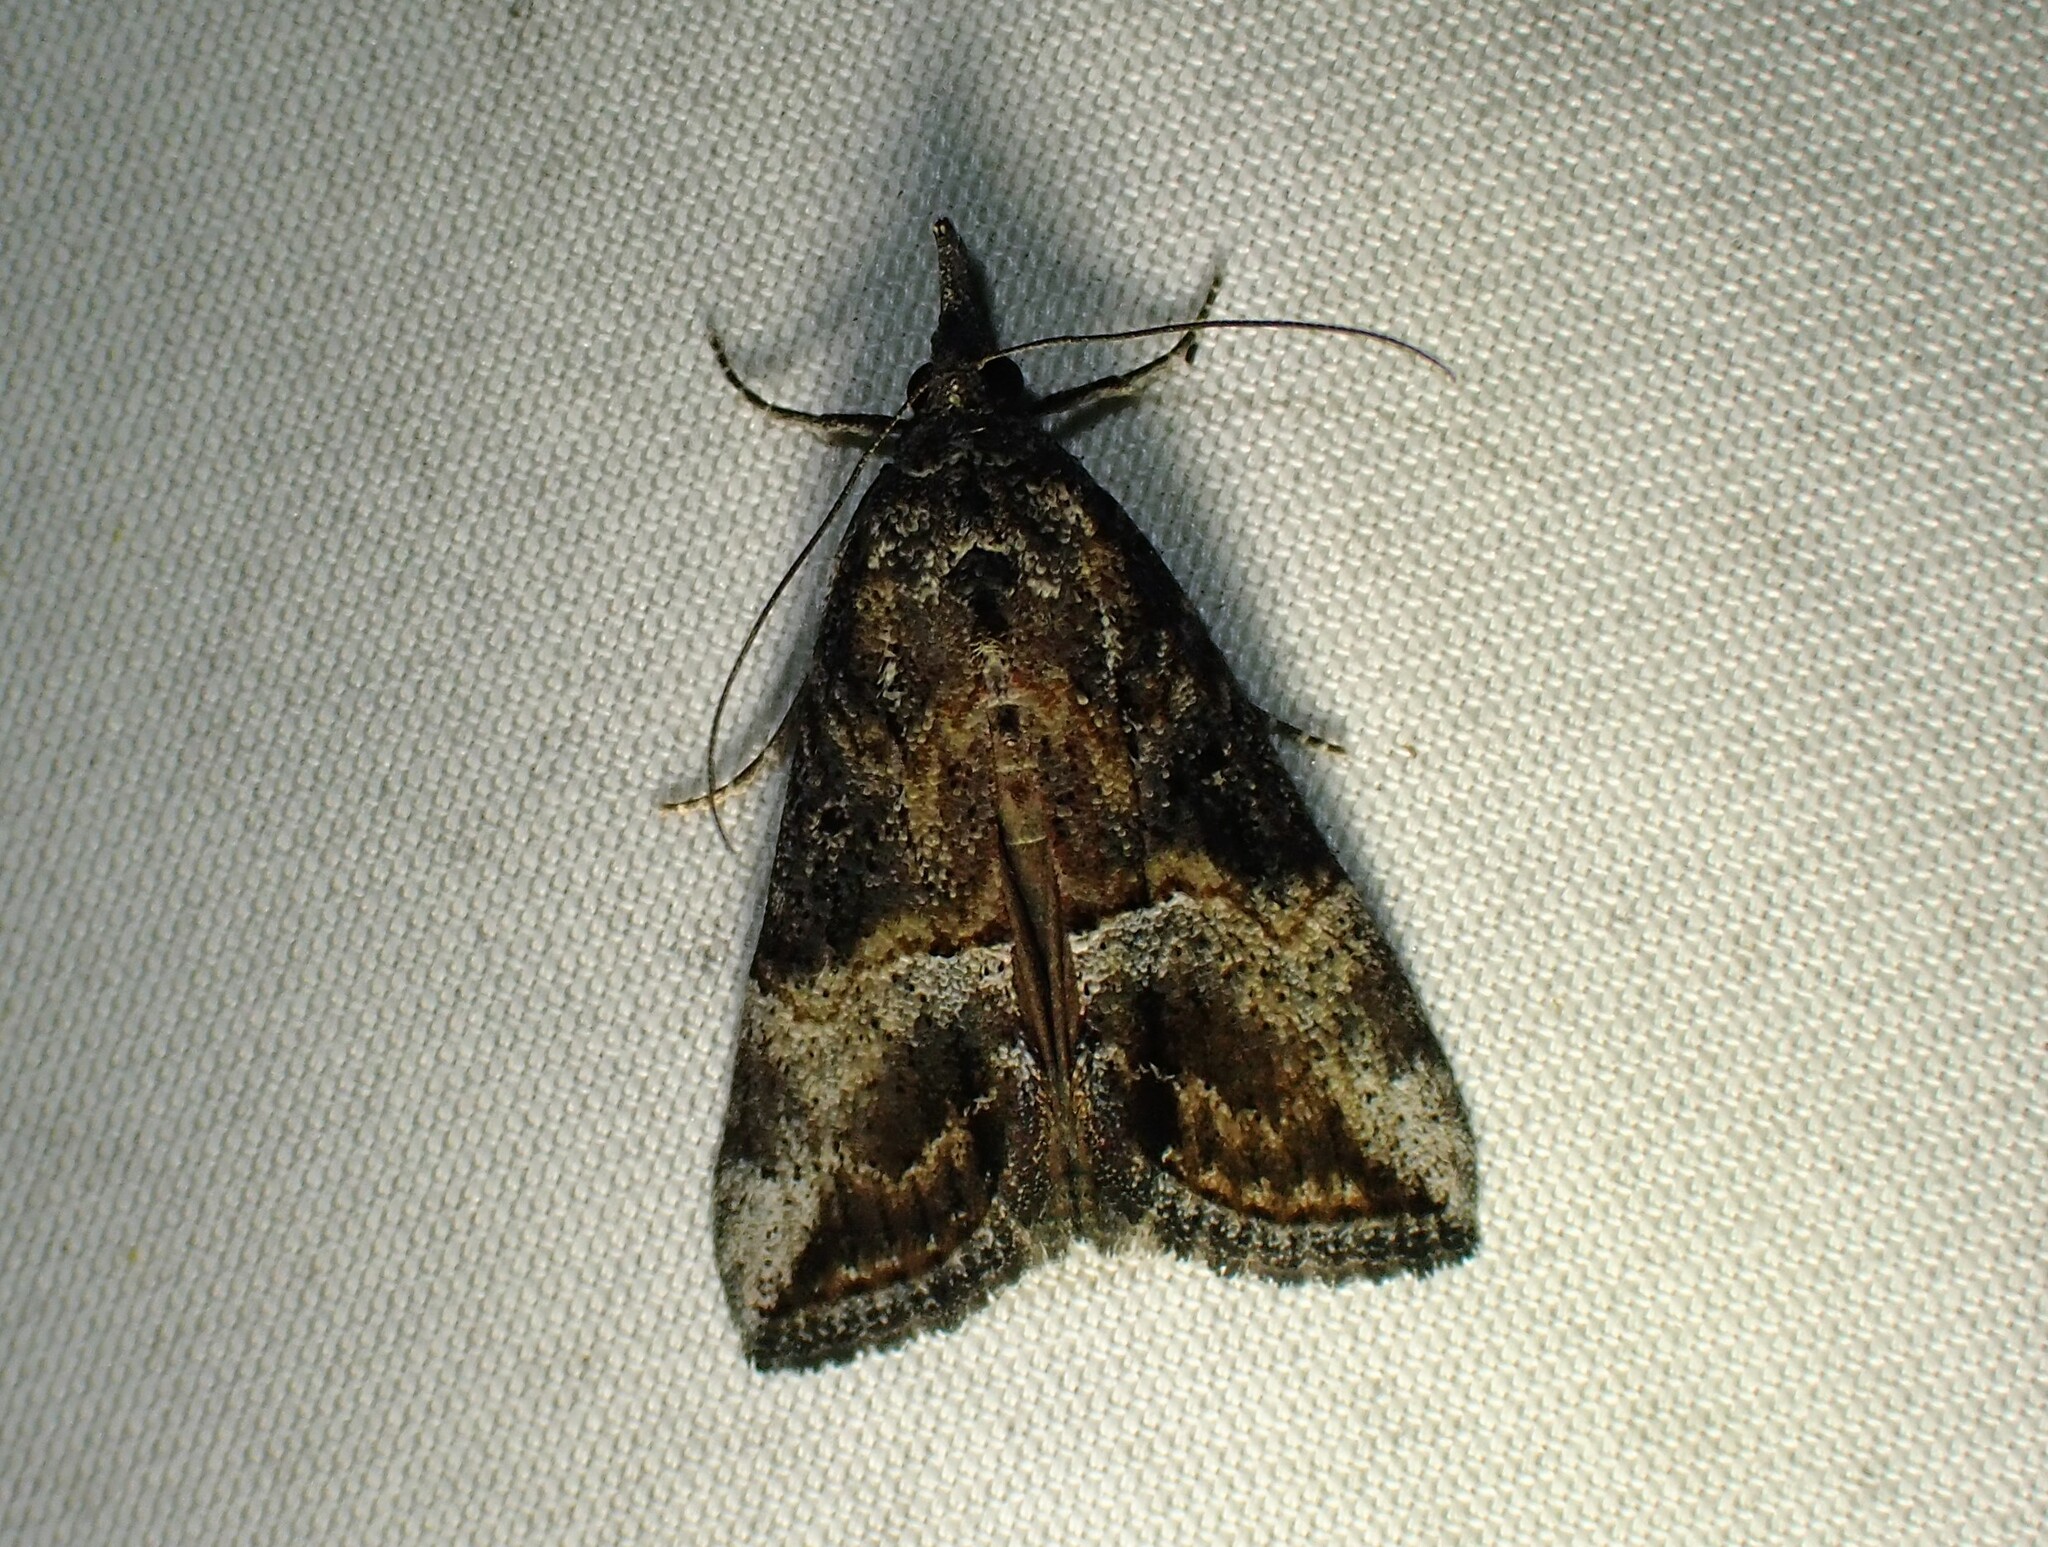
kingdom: Animalia
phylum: Arthropoda
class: Insecta
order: Lepidoptera
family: Erebidae
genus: Hypena
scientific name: Hypena scabra
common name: Green cloverworm
